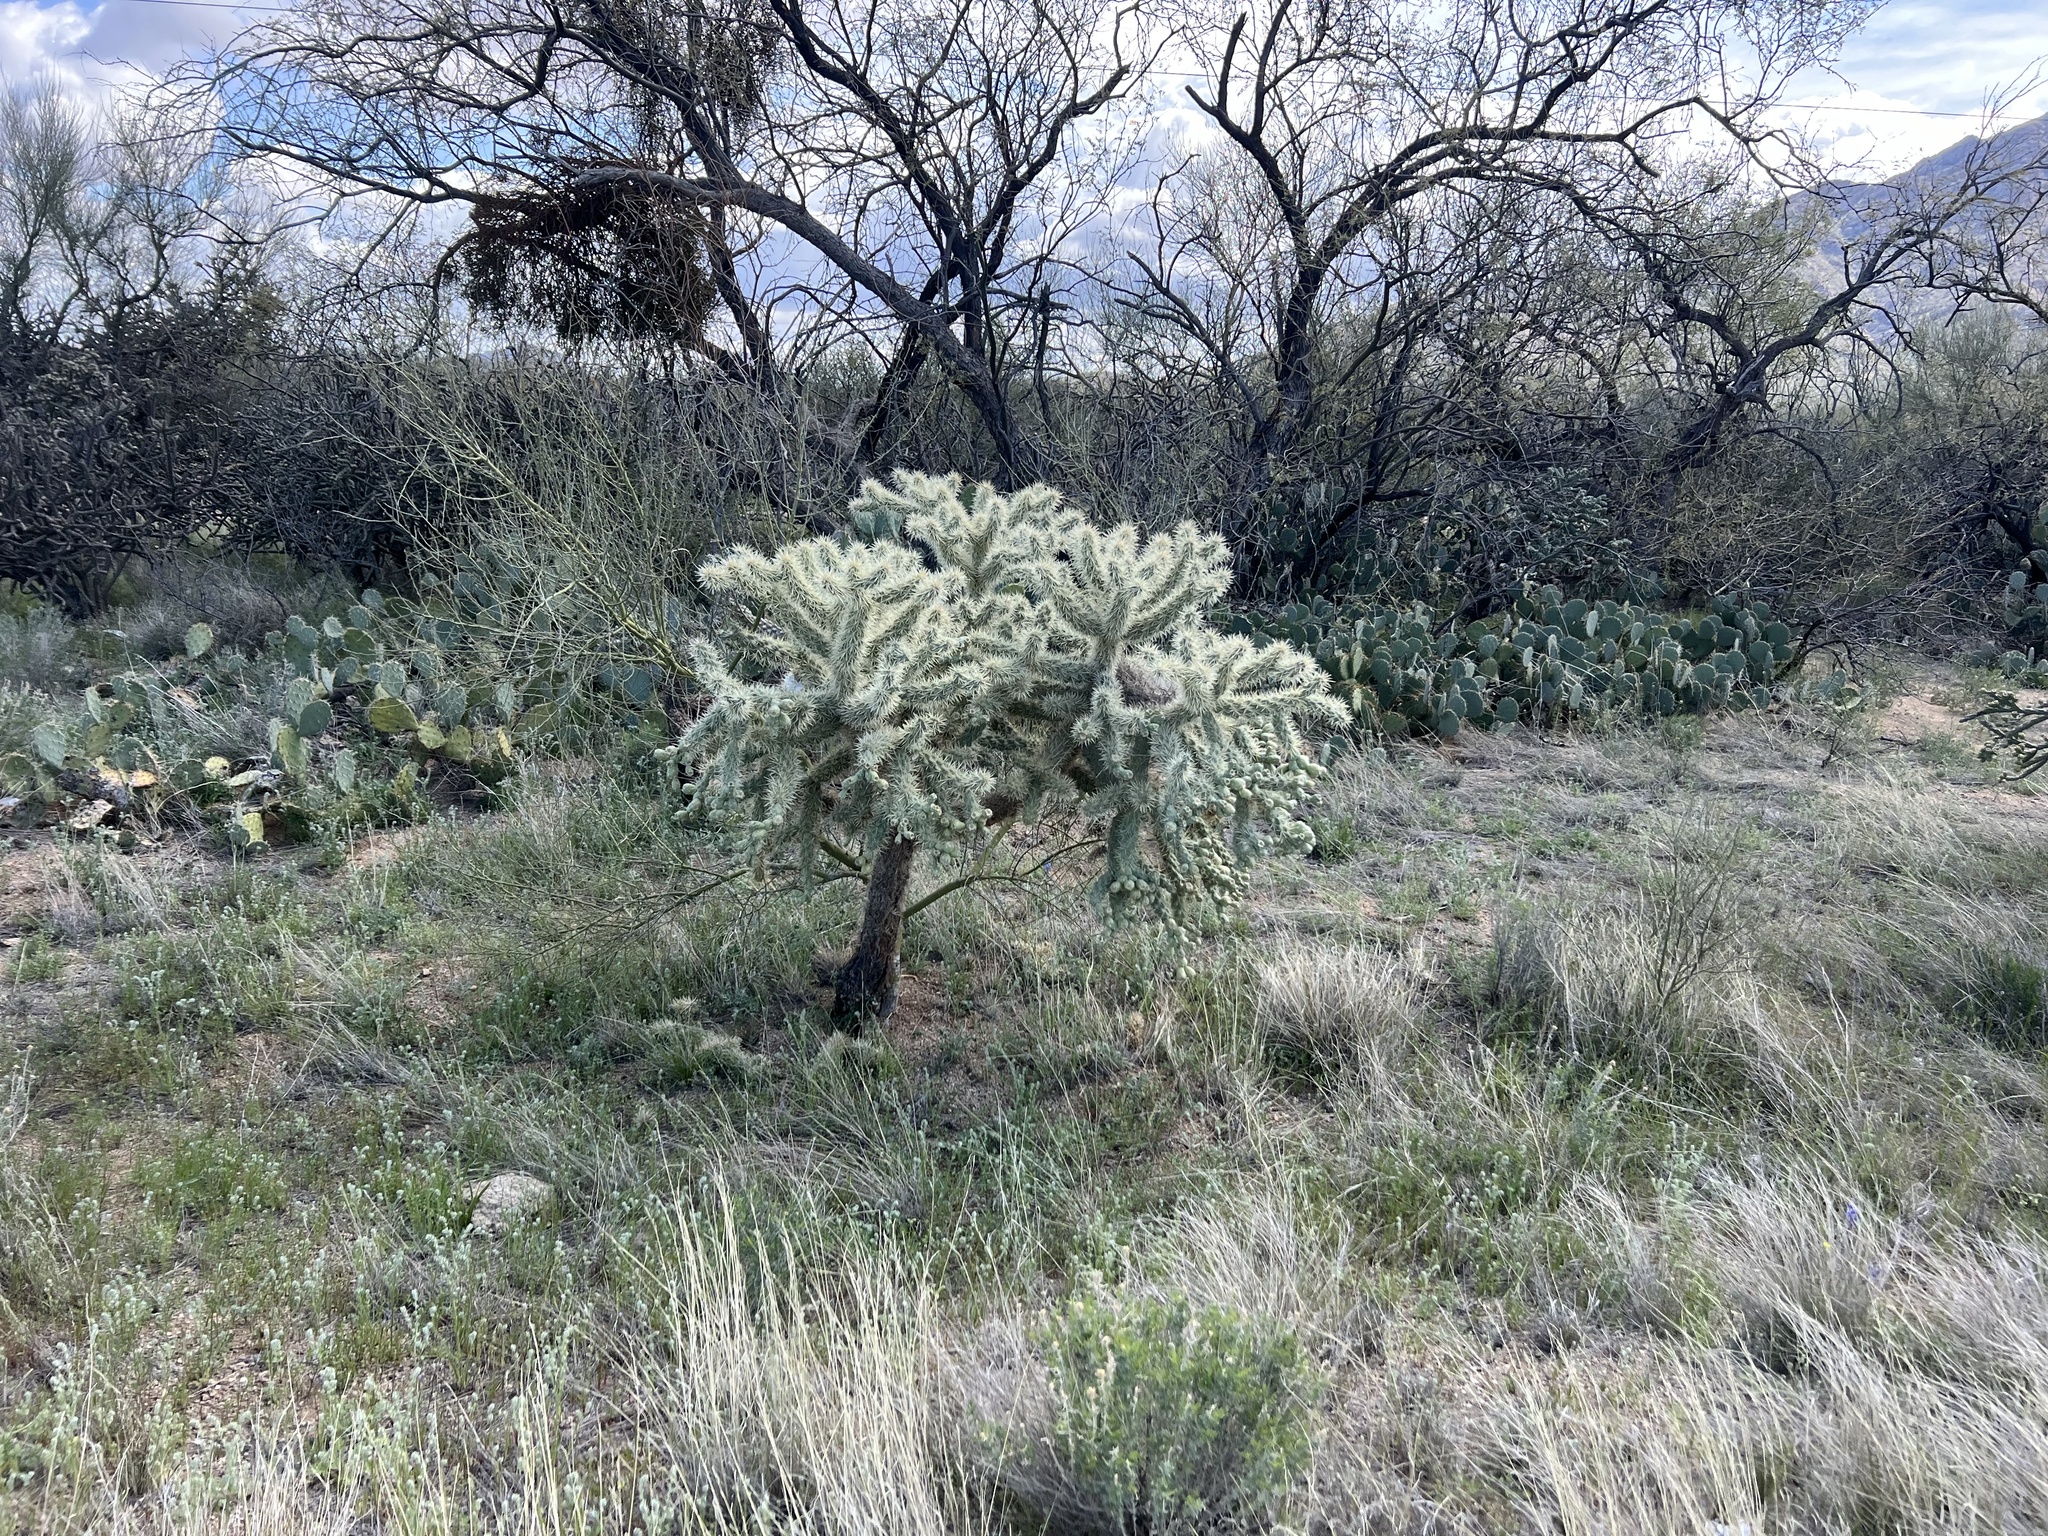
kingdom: Plantae
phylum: Tracheophyta
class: Magnoliopsida
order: Caryophyllales
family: Cactaceae
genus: Cylindropuntia
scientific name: Cylindropuntia fulgida
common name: Jumping cholla
